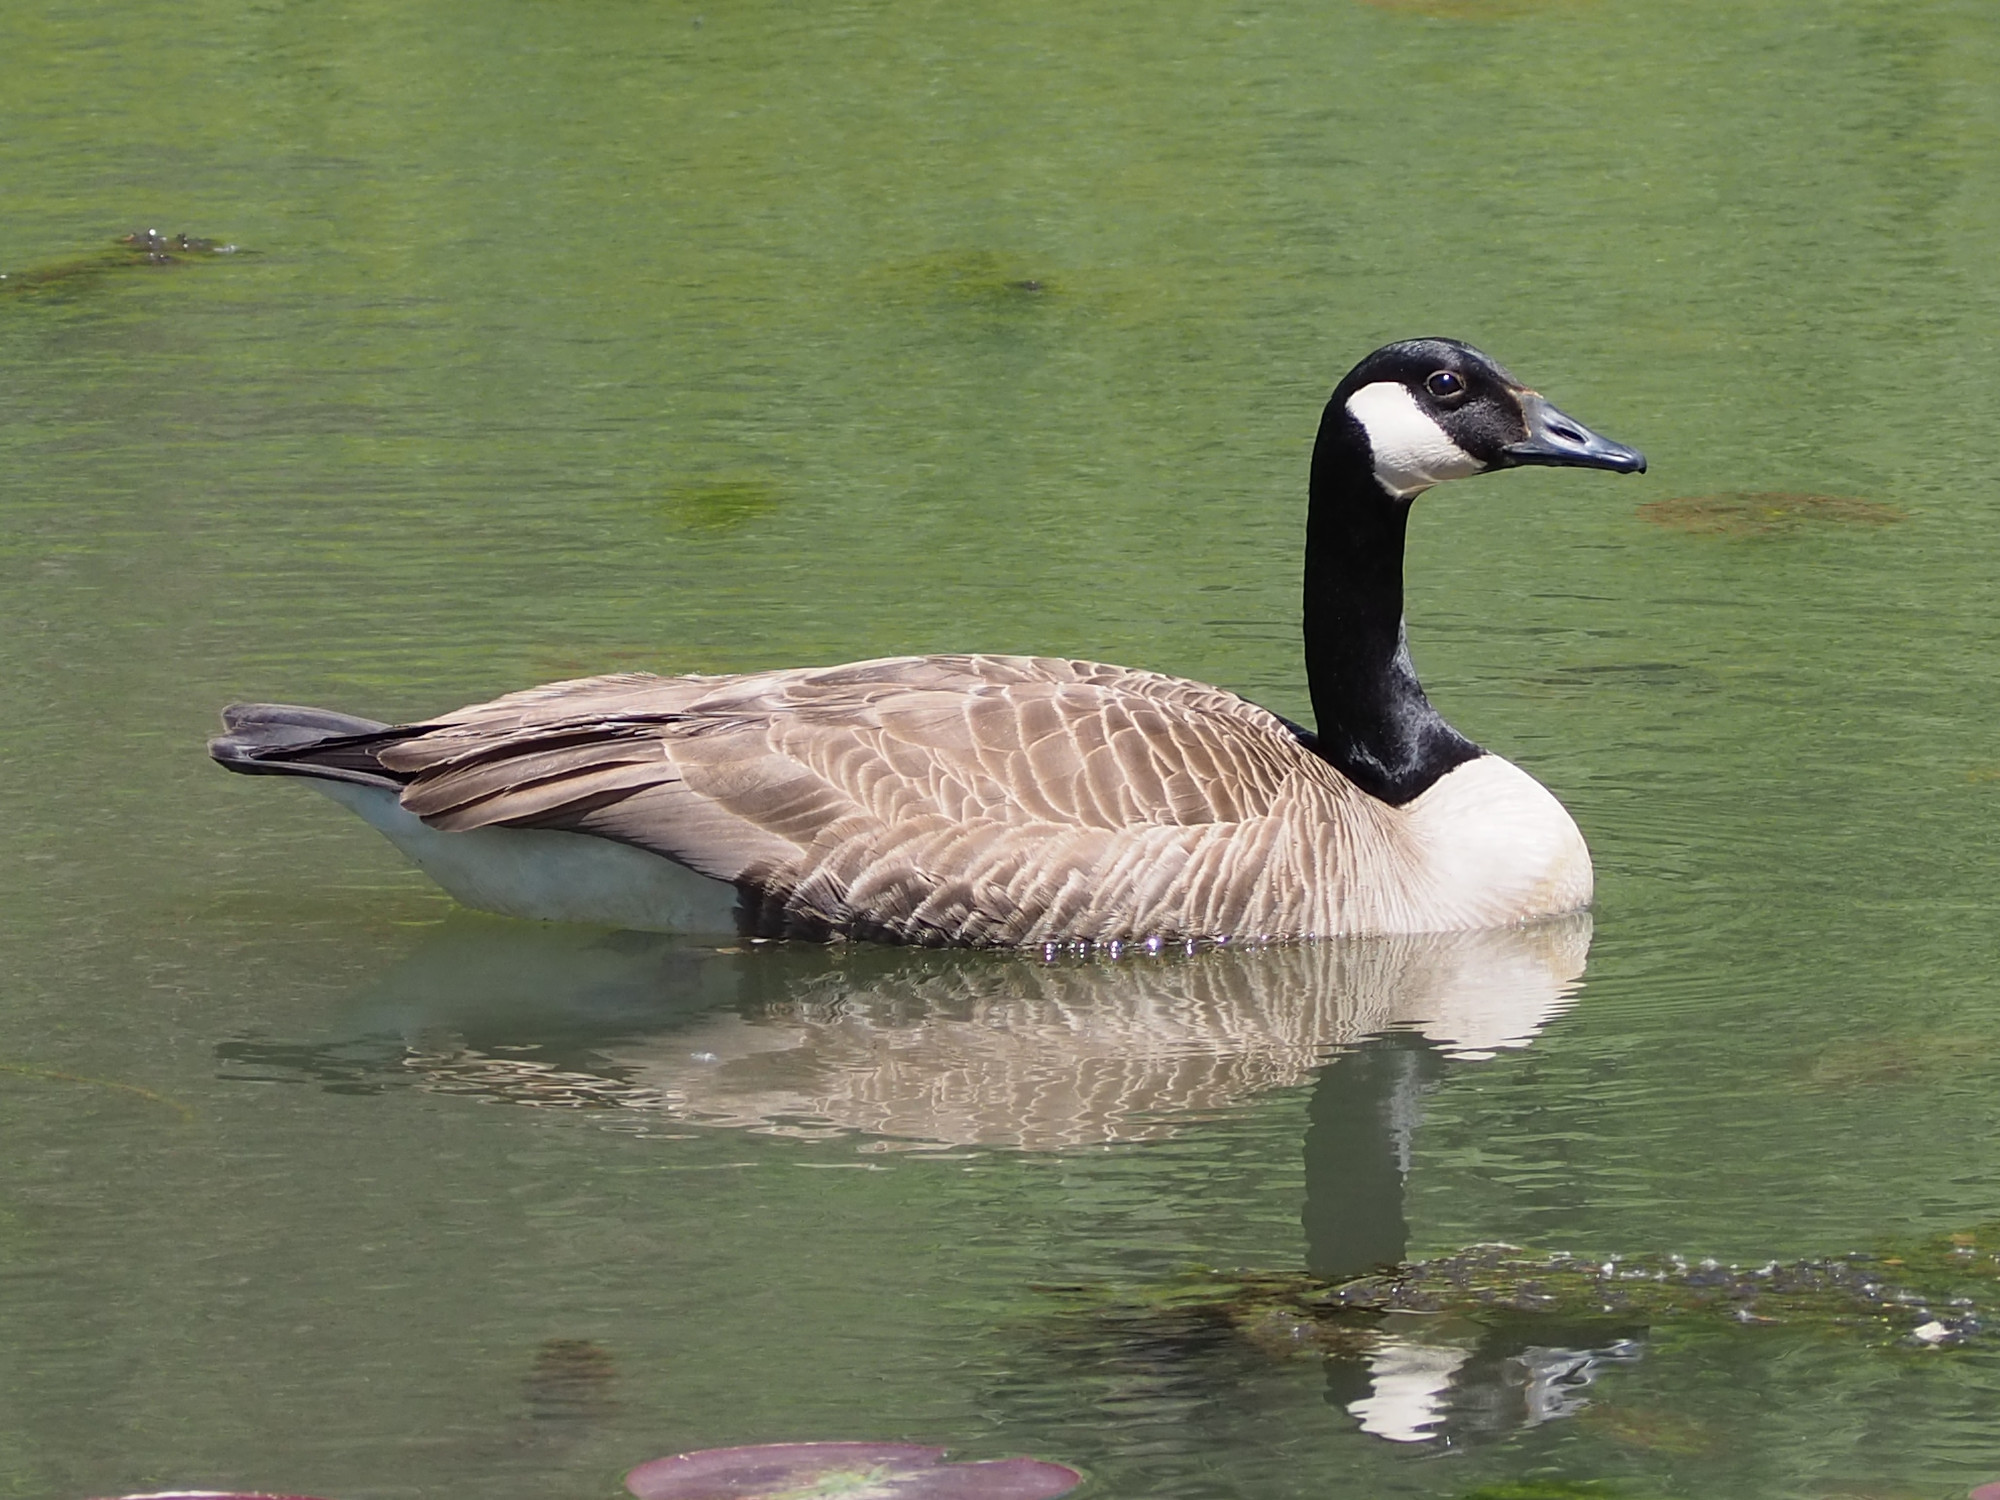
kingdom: Animalia
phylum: Chordata
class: Aves
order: Anseriformes
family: Anatidae
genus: Branta
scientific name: Branta canadensis
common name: Canada goose
